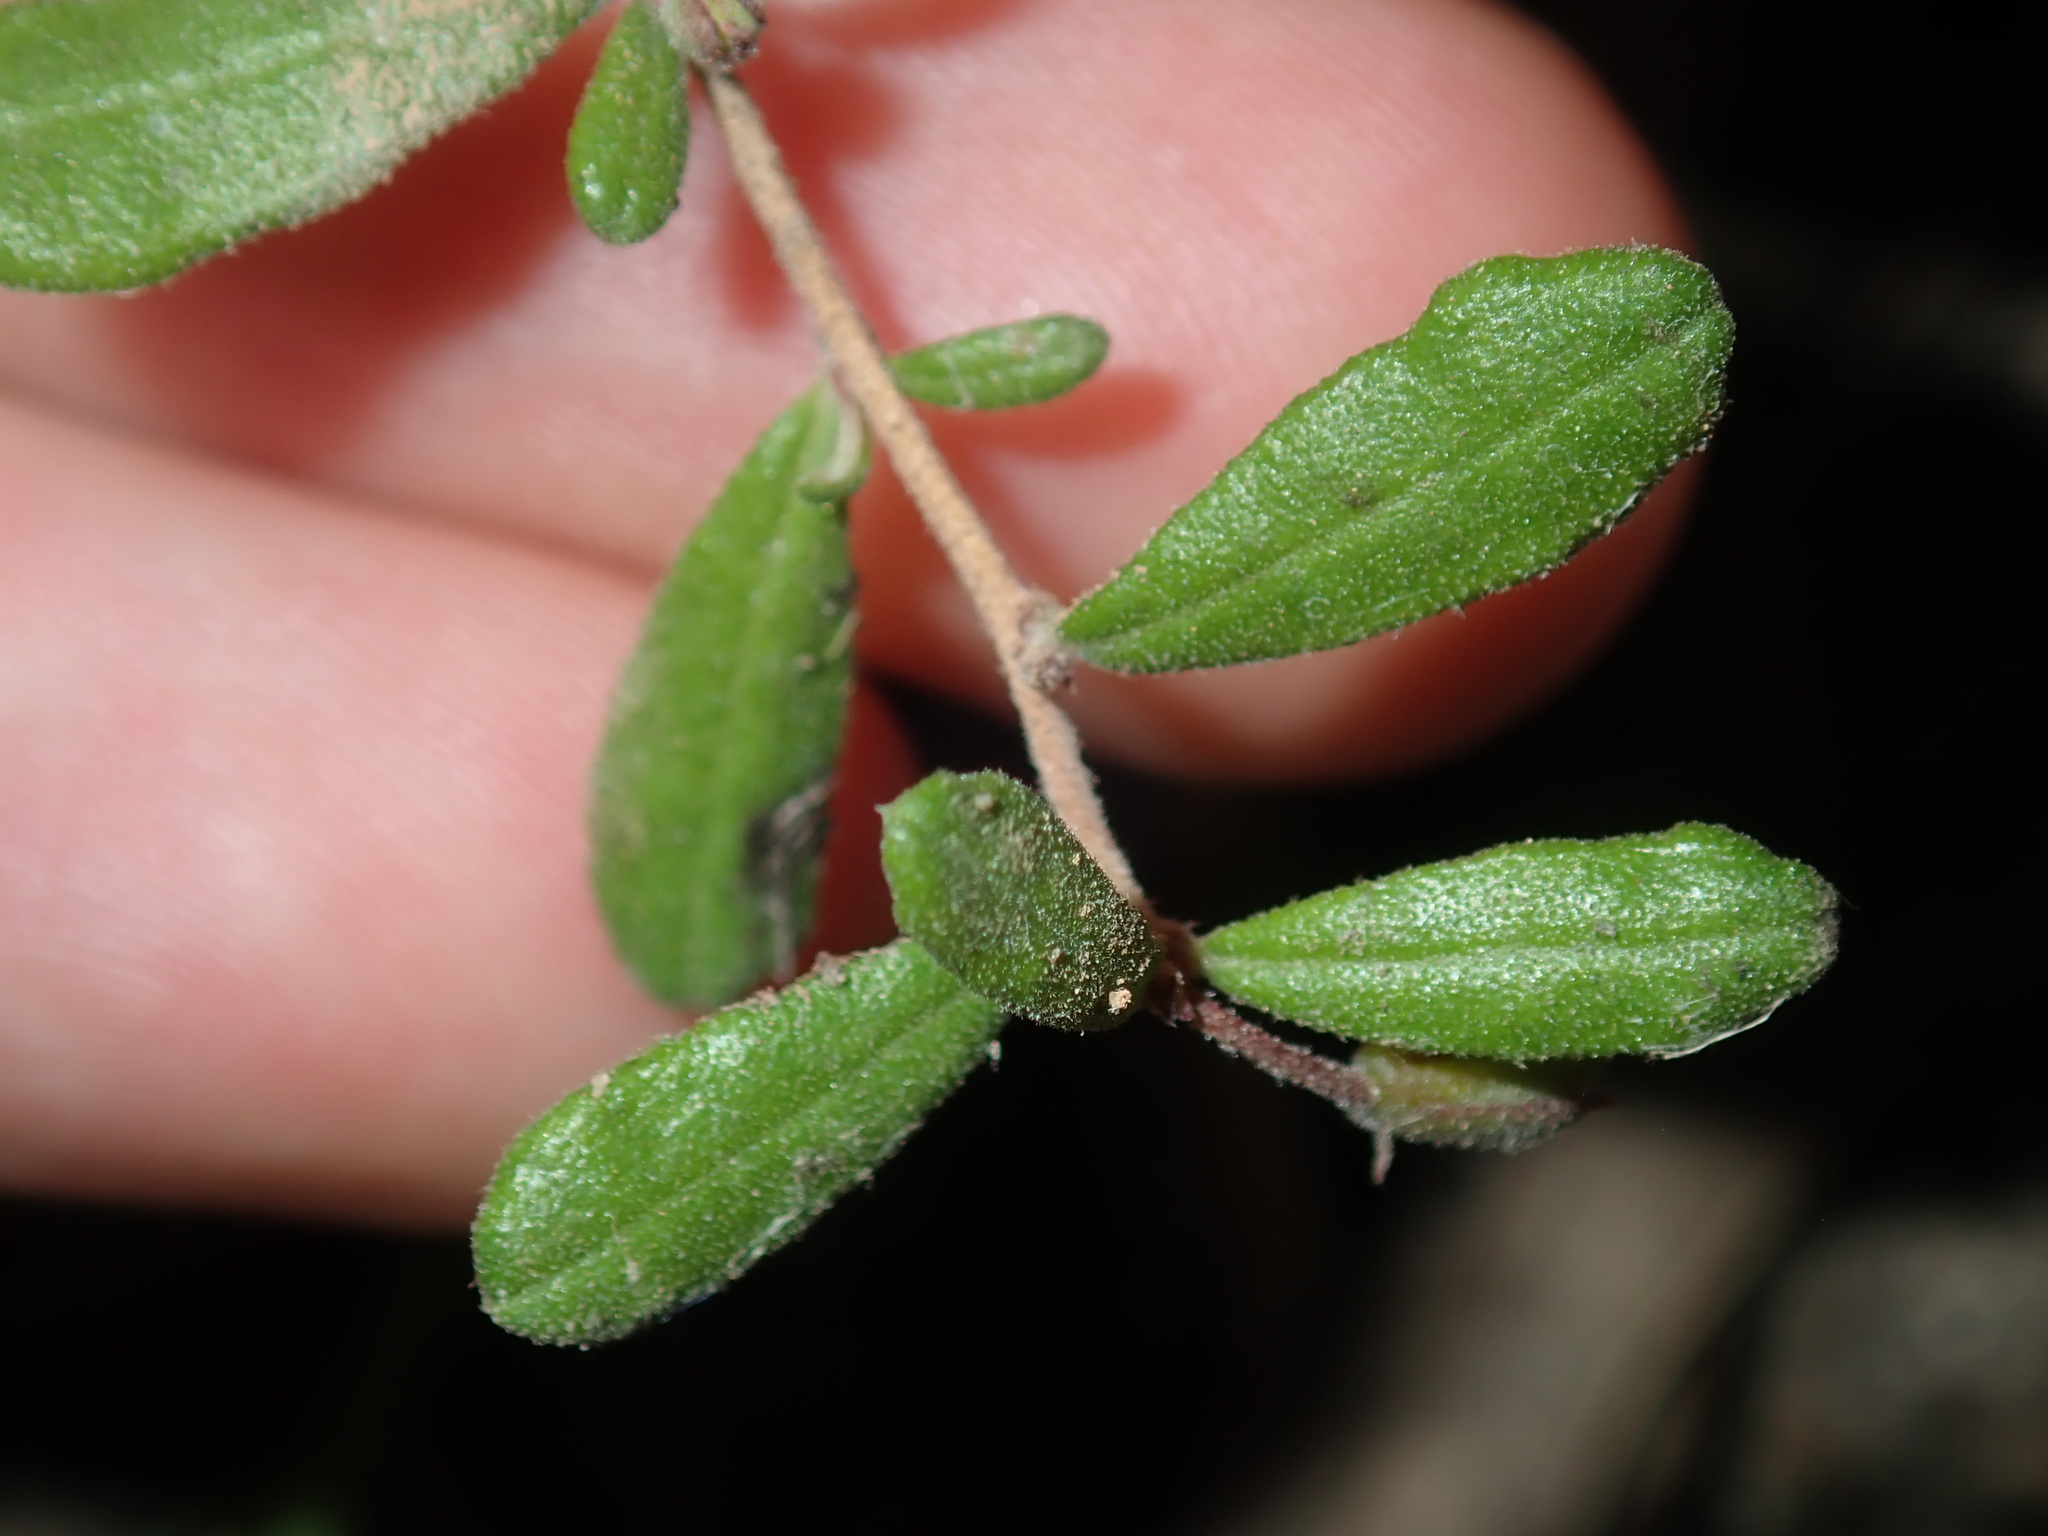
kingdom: Plantae
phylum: Tracheophyta
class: Magnoliopsida
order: Dilleniales
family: Dilleniaceae
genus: Hibbertia
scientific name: Hibbertia aspera
